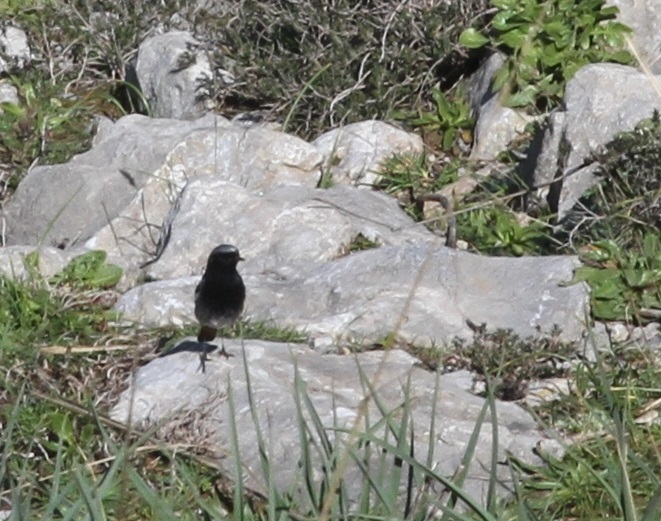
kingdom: Animalia
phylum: Chordata
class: Aves
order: Passeriformes
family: Muscicapidae
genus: Phoenicurus
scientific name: Phoenicurus ochruros
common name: Black redstart
